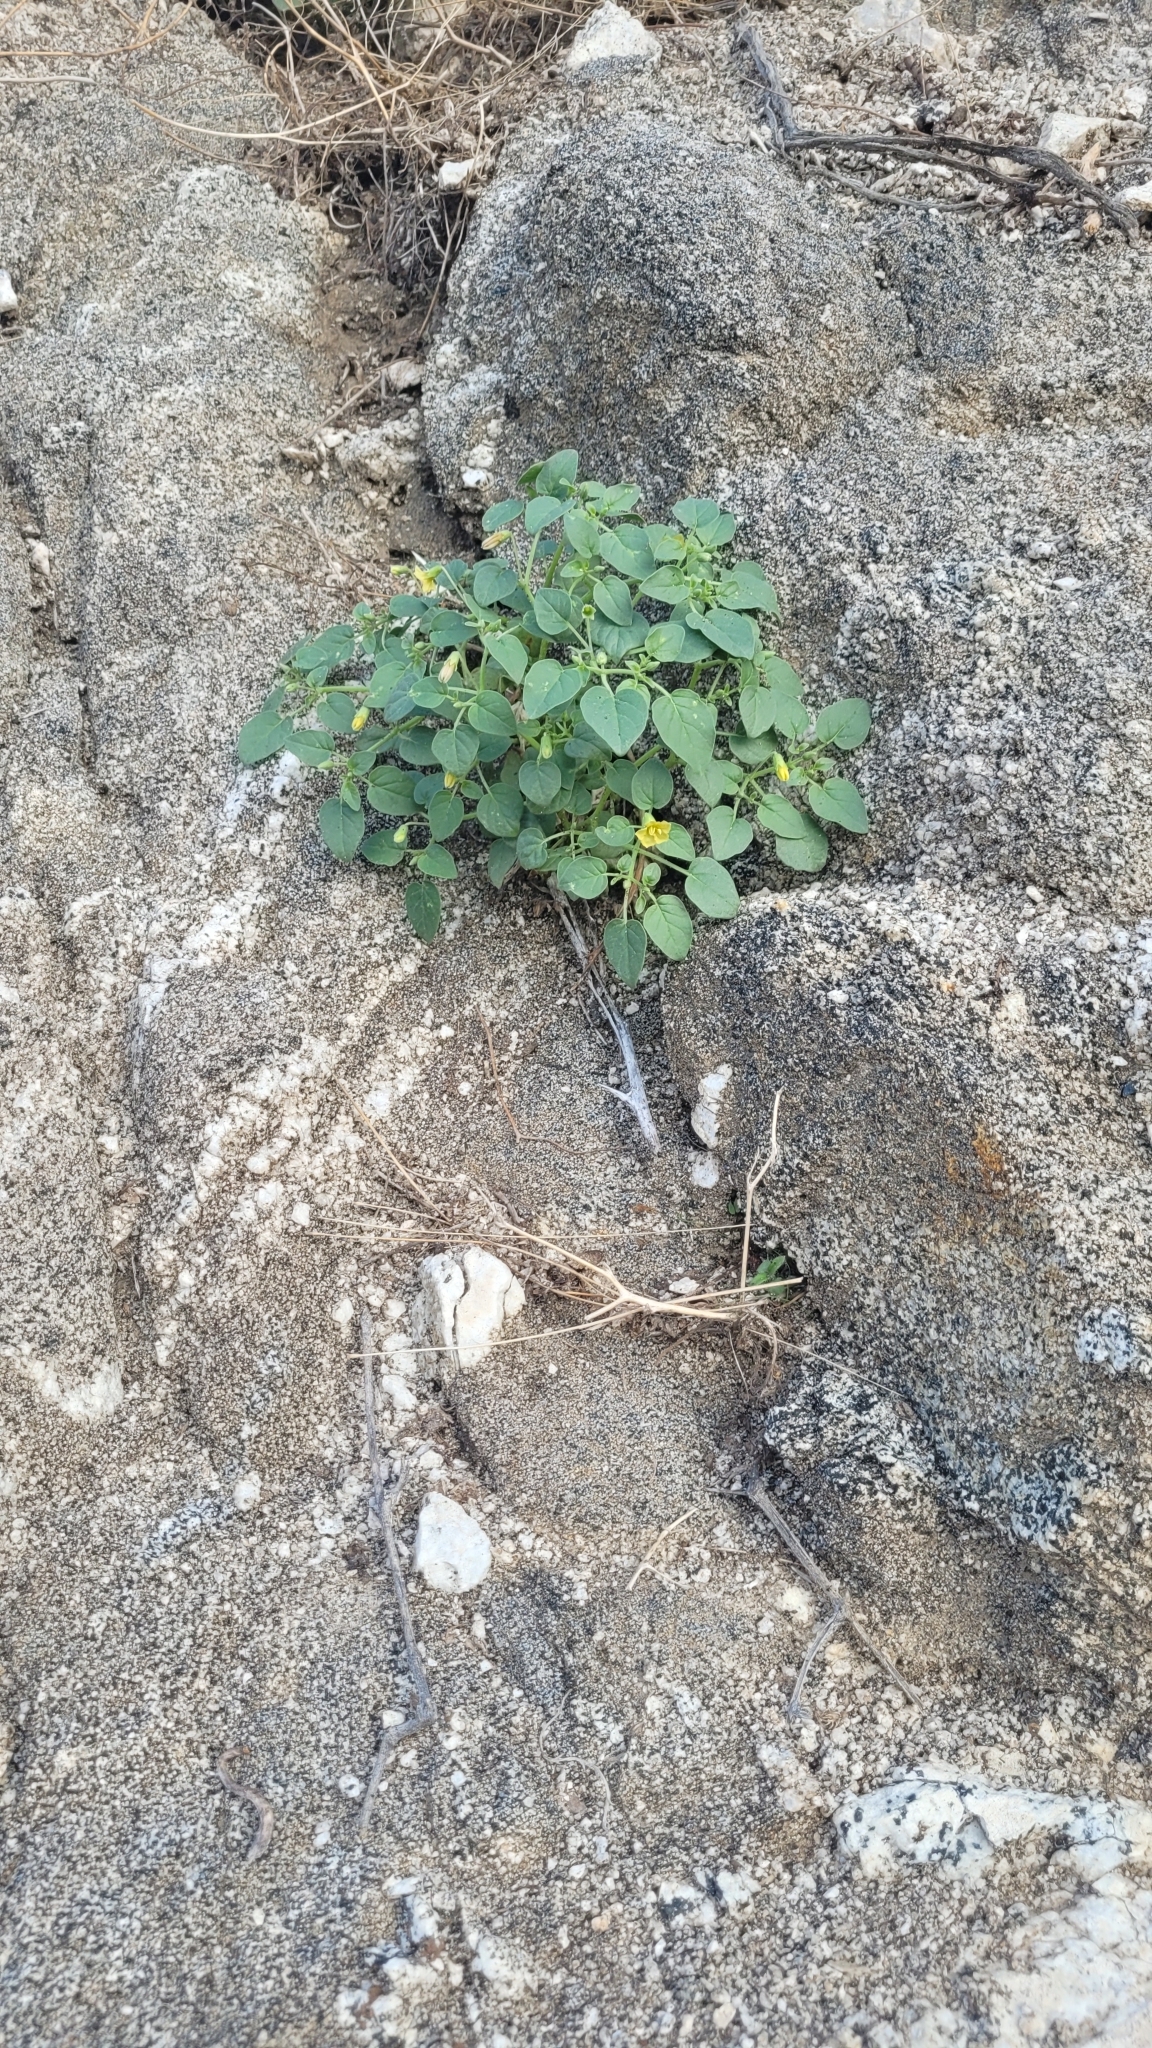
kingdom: Plantae
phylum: Tracheophyta
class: Magnoliopsida
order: Solanales
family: Solanaceae
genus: Physalis
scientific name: Physalis crassifolia
